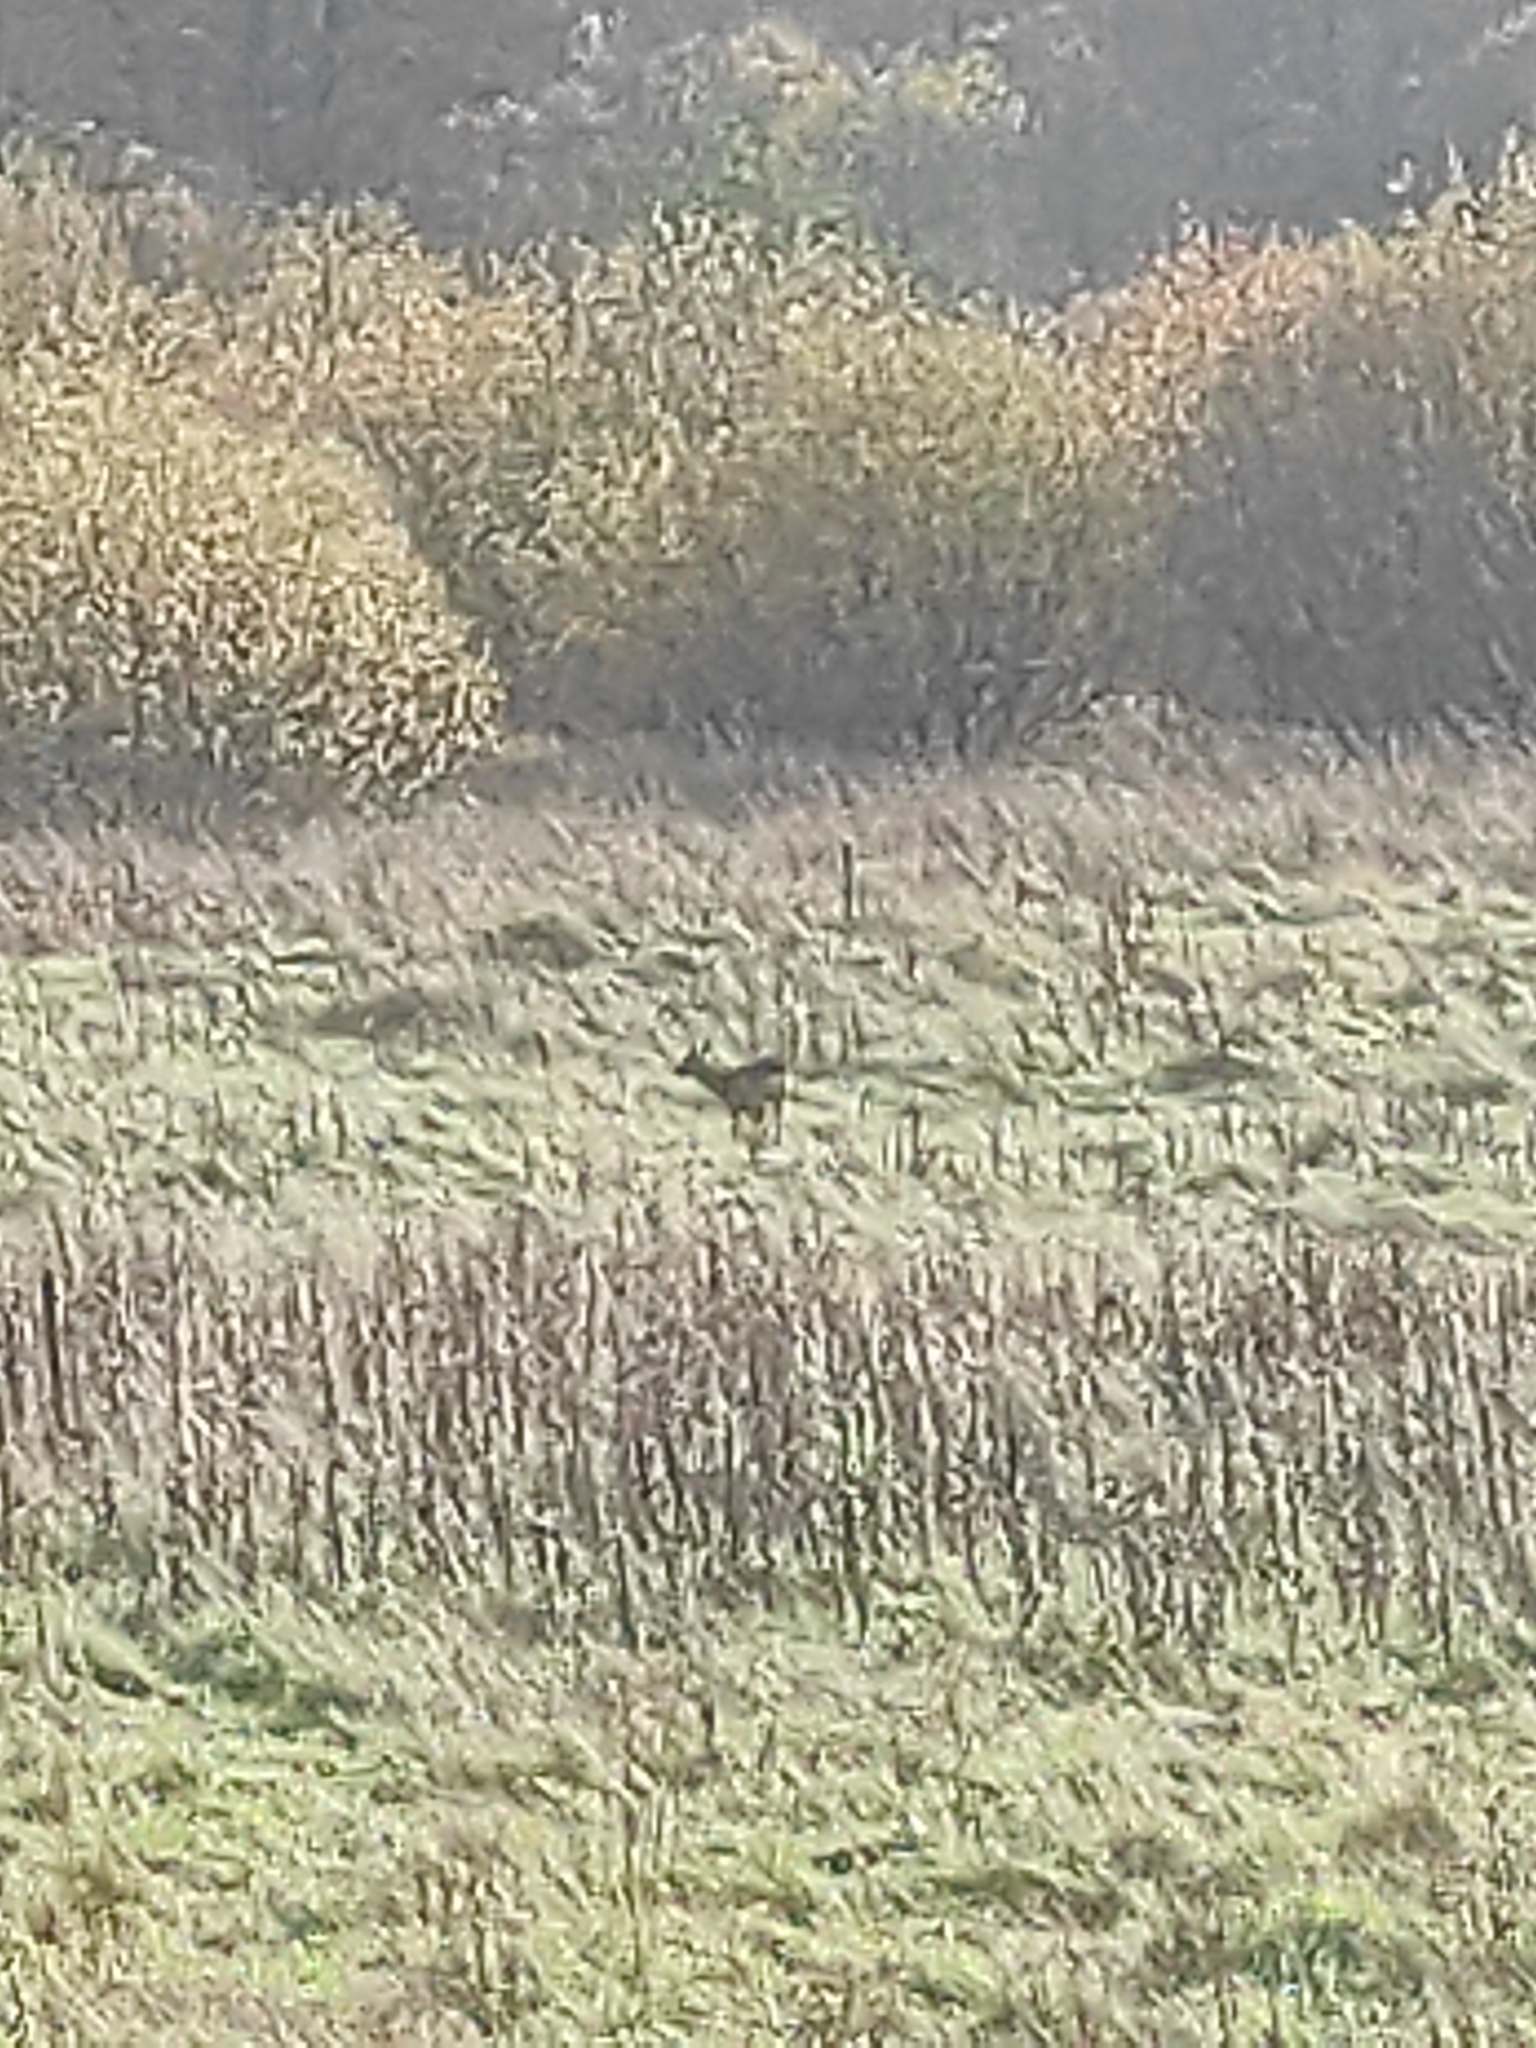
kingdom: Animalia
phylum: Chordata
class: Mammalia
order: Artiodactyla
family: Cervidae
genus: Capreolus
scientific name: Capreolus capreolus
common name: Western roe deer
